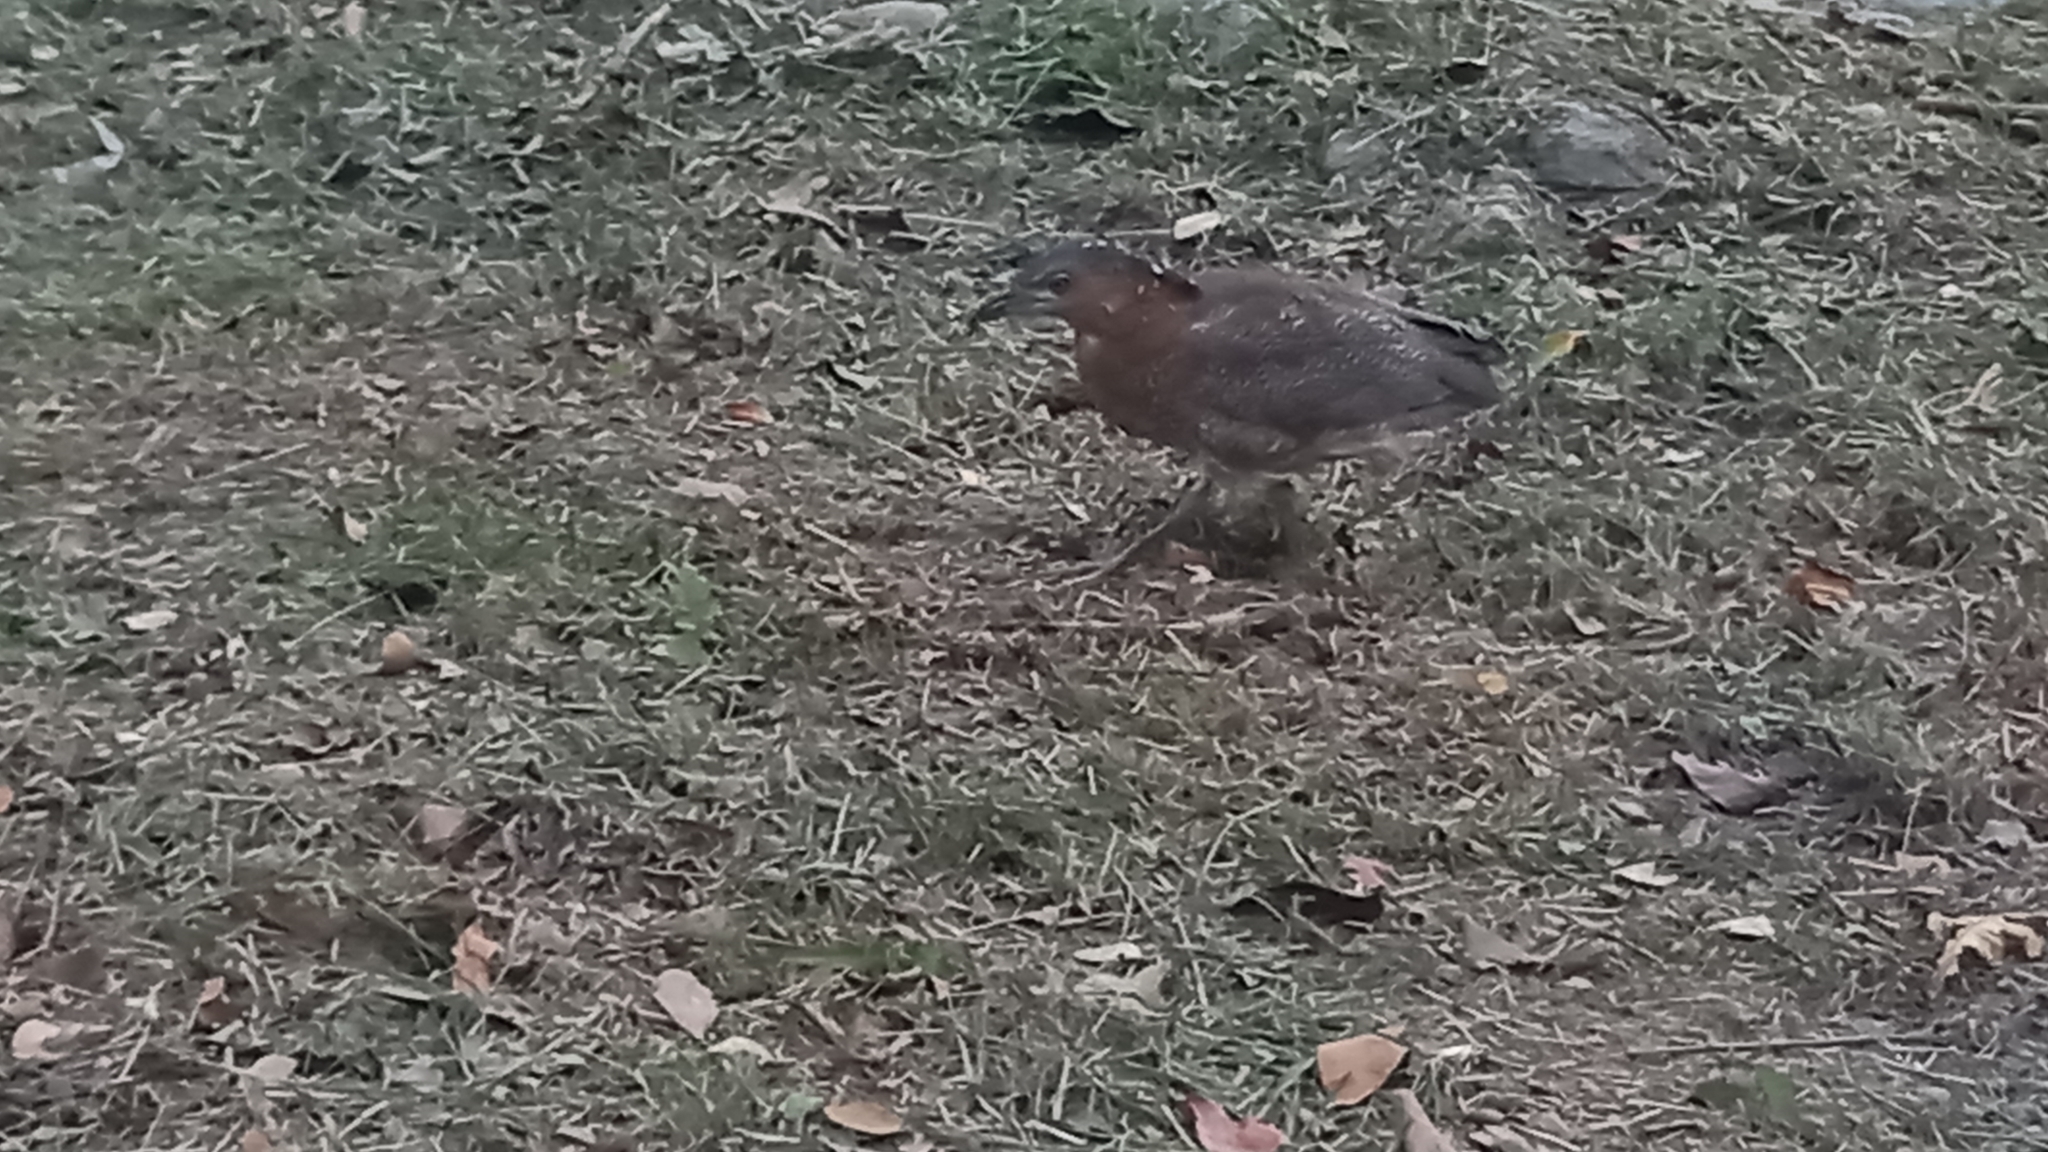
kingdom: Animalia
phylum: Chordata
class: Aves
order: Pelecaniformes
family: Ardeidae
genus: Gorsachius
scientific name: Gorsachius melanolophus
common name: Malayan night heron
